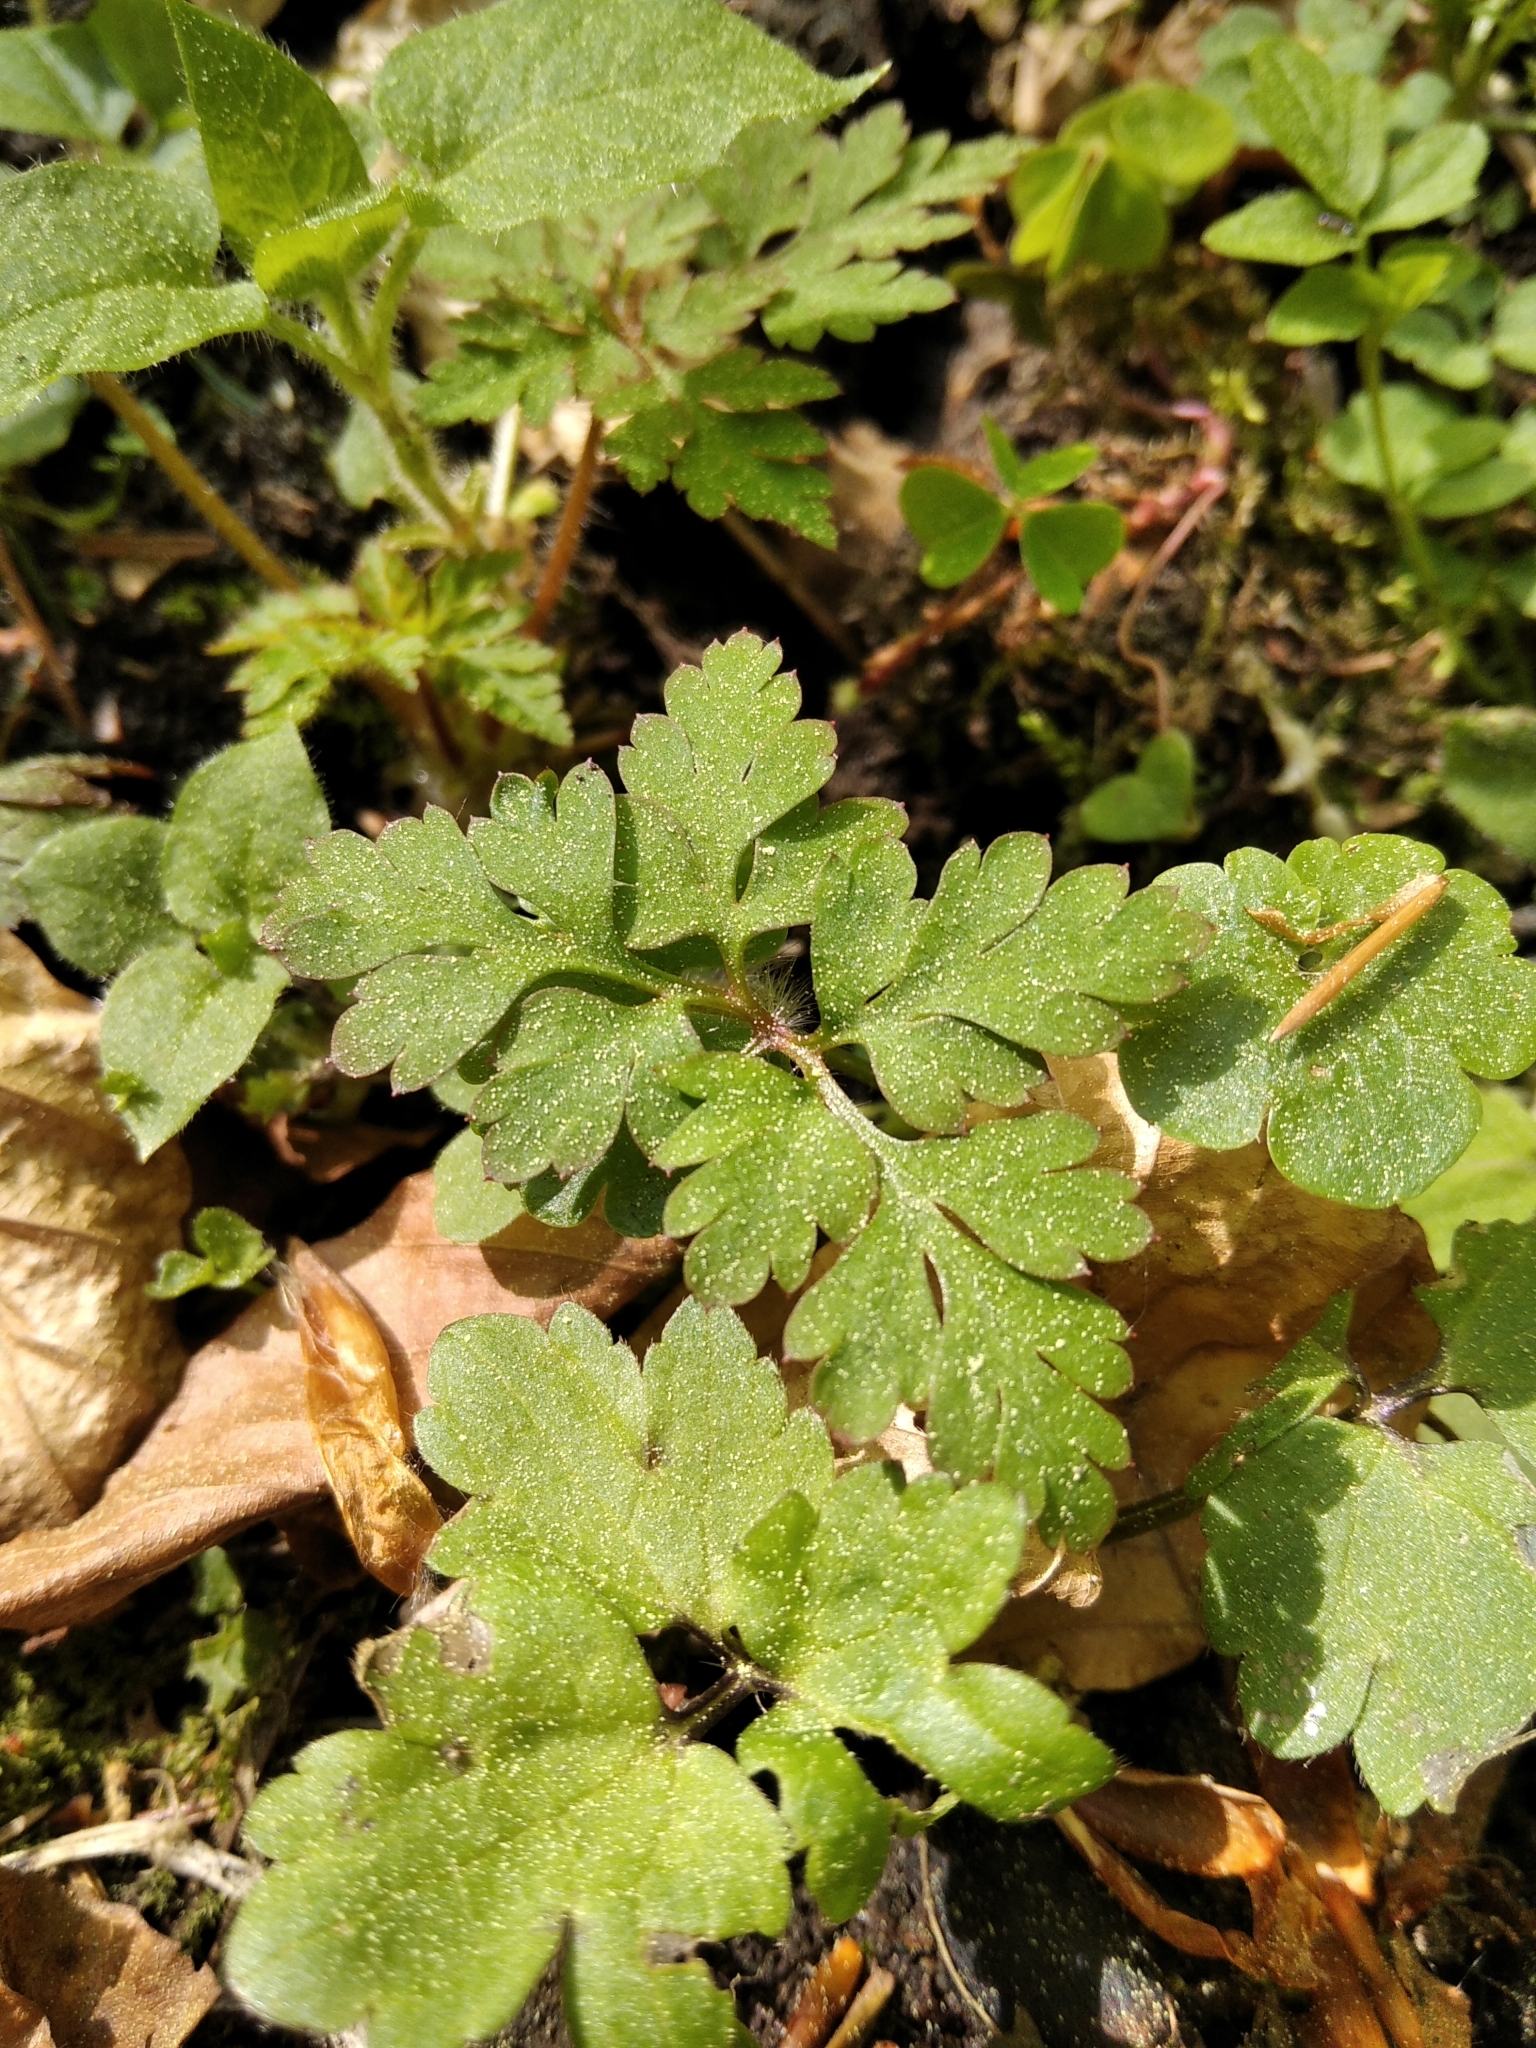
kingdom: Plantae
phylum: Tracheophyta
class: Magnoliopsida
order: Geraniales
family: Geraniaceae
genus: Geranium
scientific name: Geranium robertianum
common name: Herb-robert
